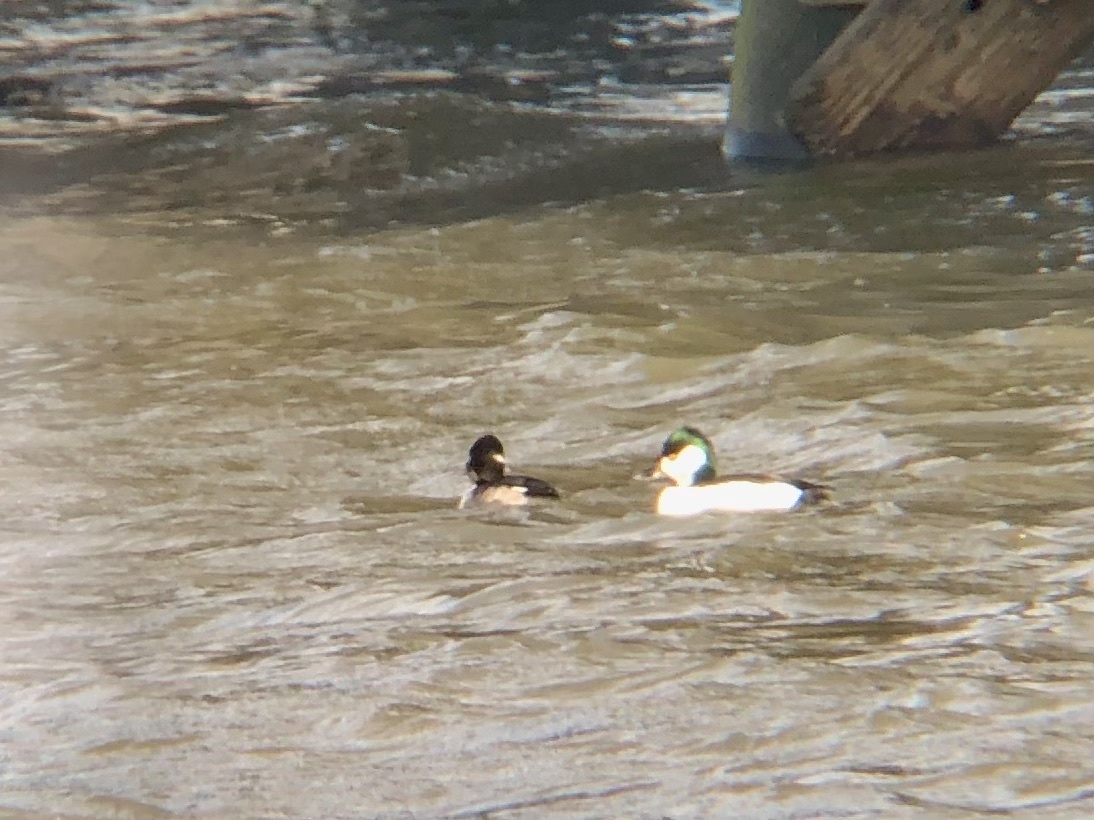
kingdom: Animalia
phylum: Chordata
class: Aves
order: Anseriformes
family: Anatidae
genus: Bucephala
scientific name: Bucephala
